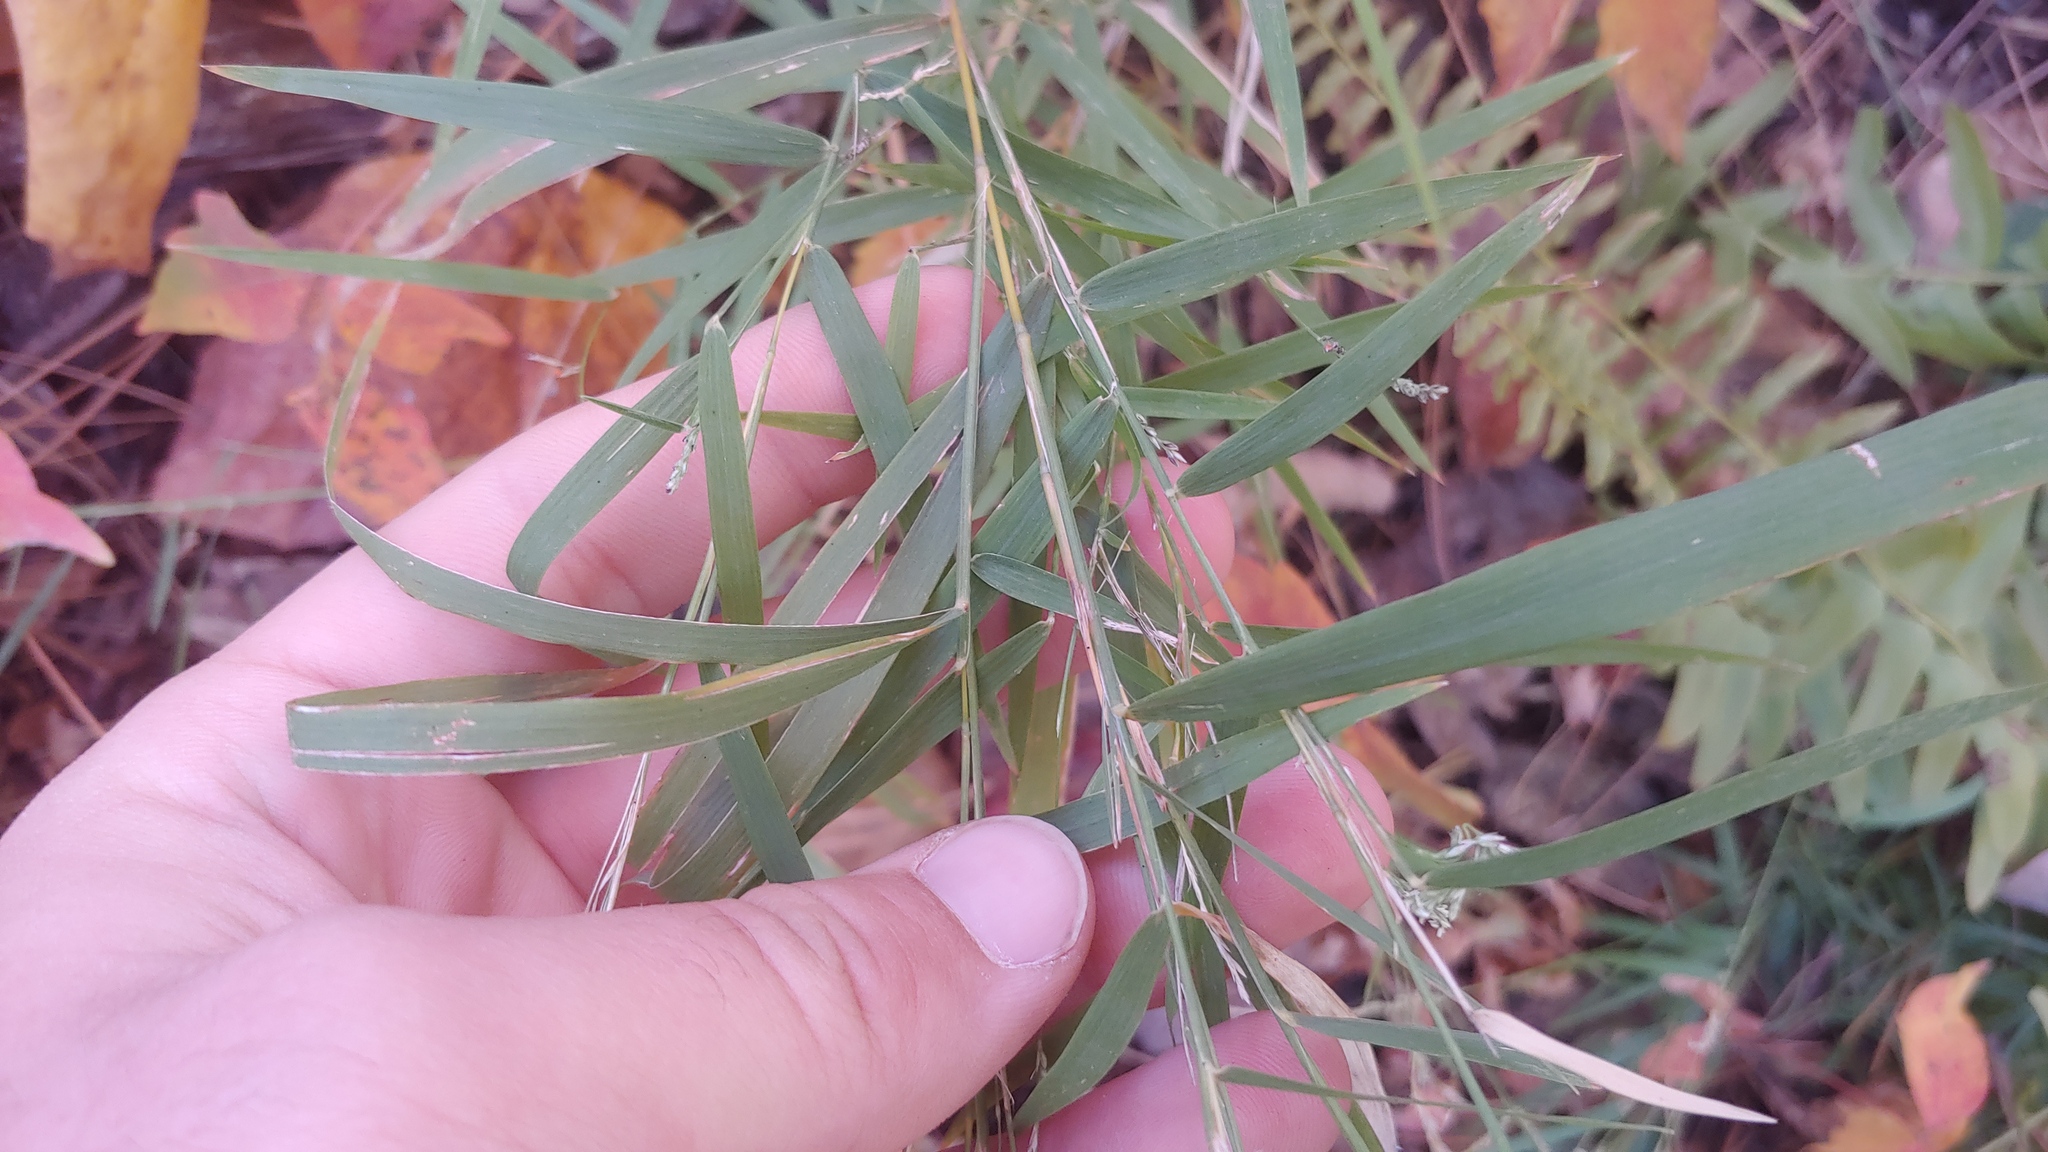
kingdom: Plantae
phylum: Tracheophyta
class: Liliopsida
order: Poales
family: Poaceae
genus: Muhlenbergia
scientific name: Muhlenbergia sobolifera
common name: Creeping muhly
